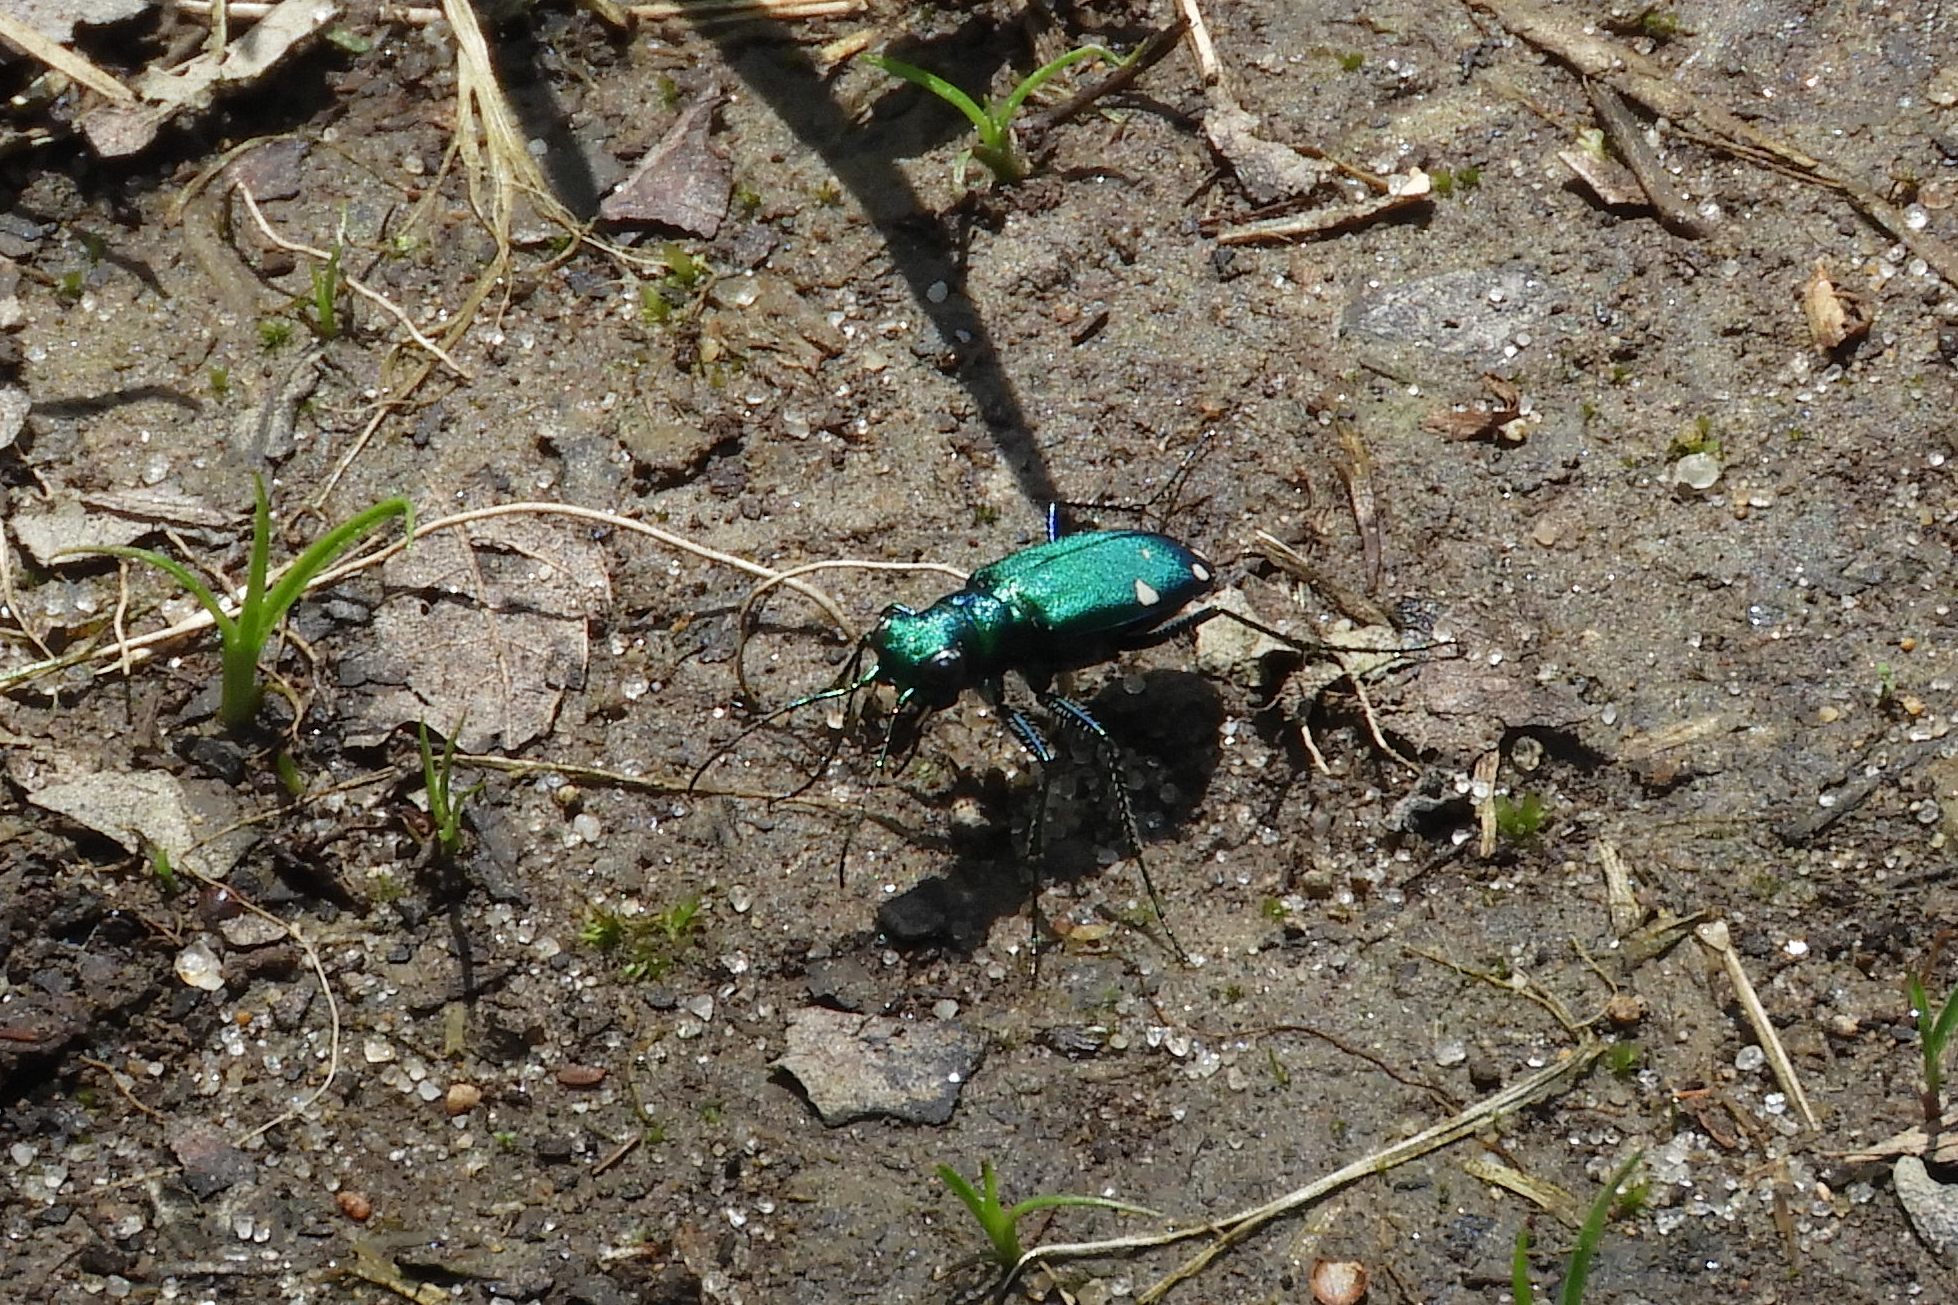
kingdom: Animalia
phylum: Arthropoda
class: Insecta
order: Coleoptera
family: Carabidae
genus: Cicindela
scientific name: Cicindela sexguttata
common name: Six-spotted tiger beetle
